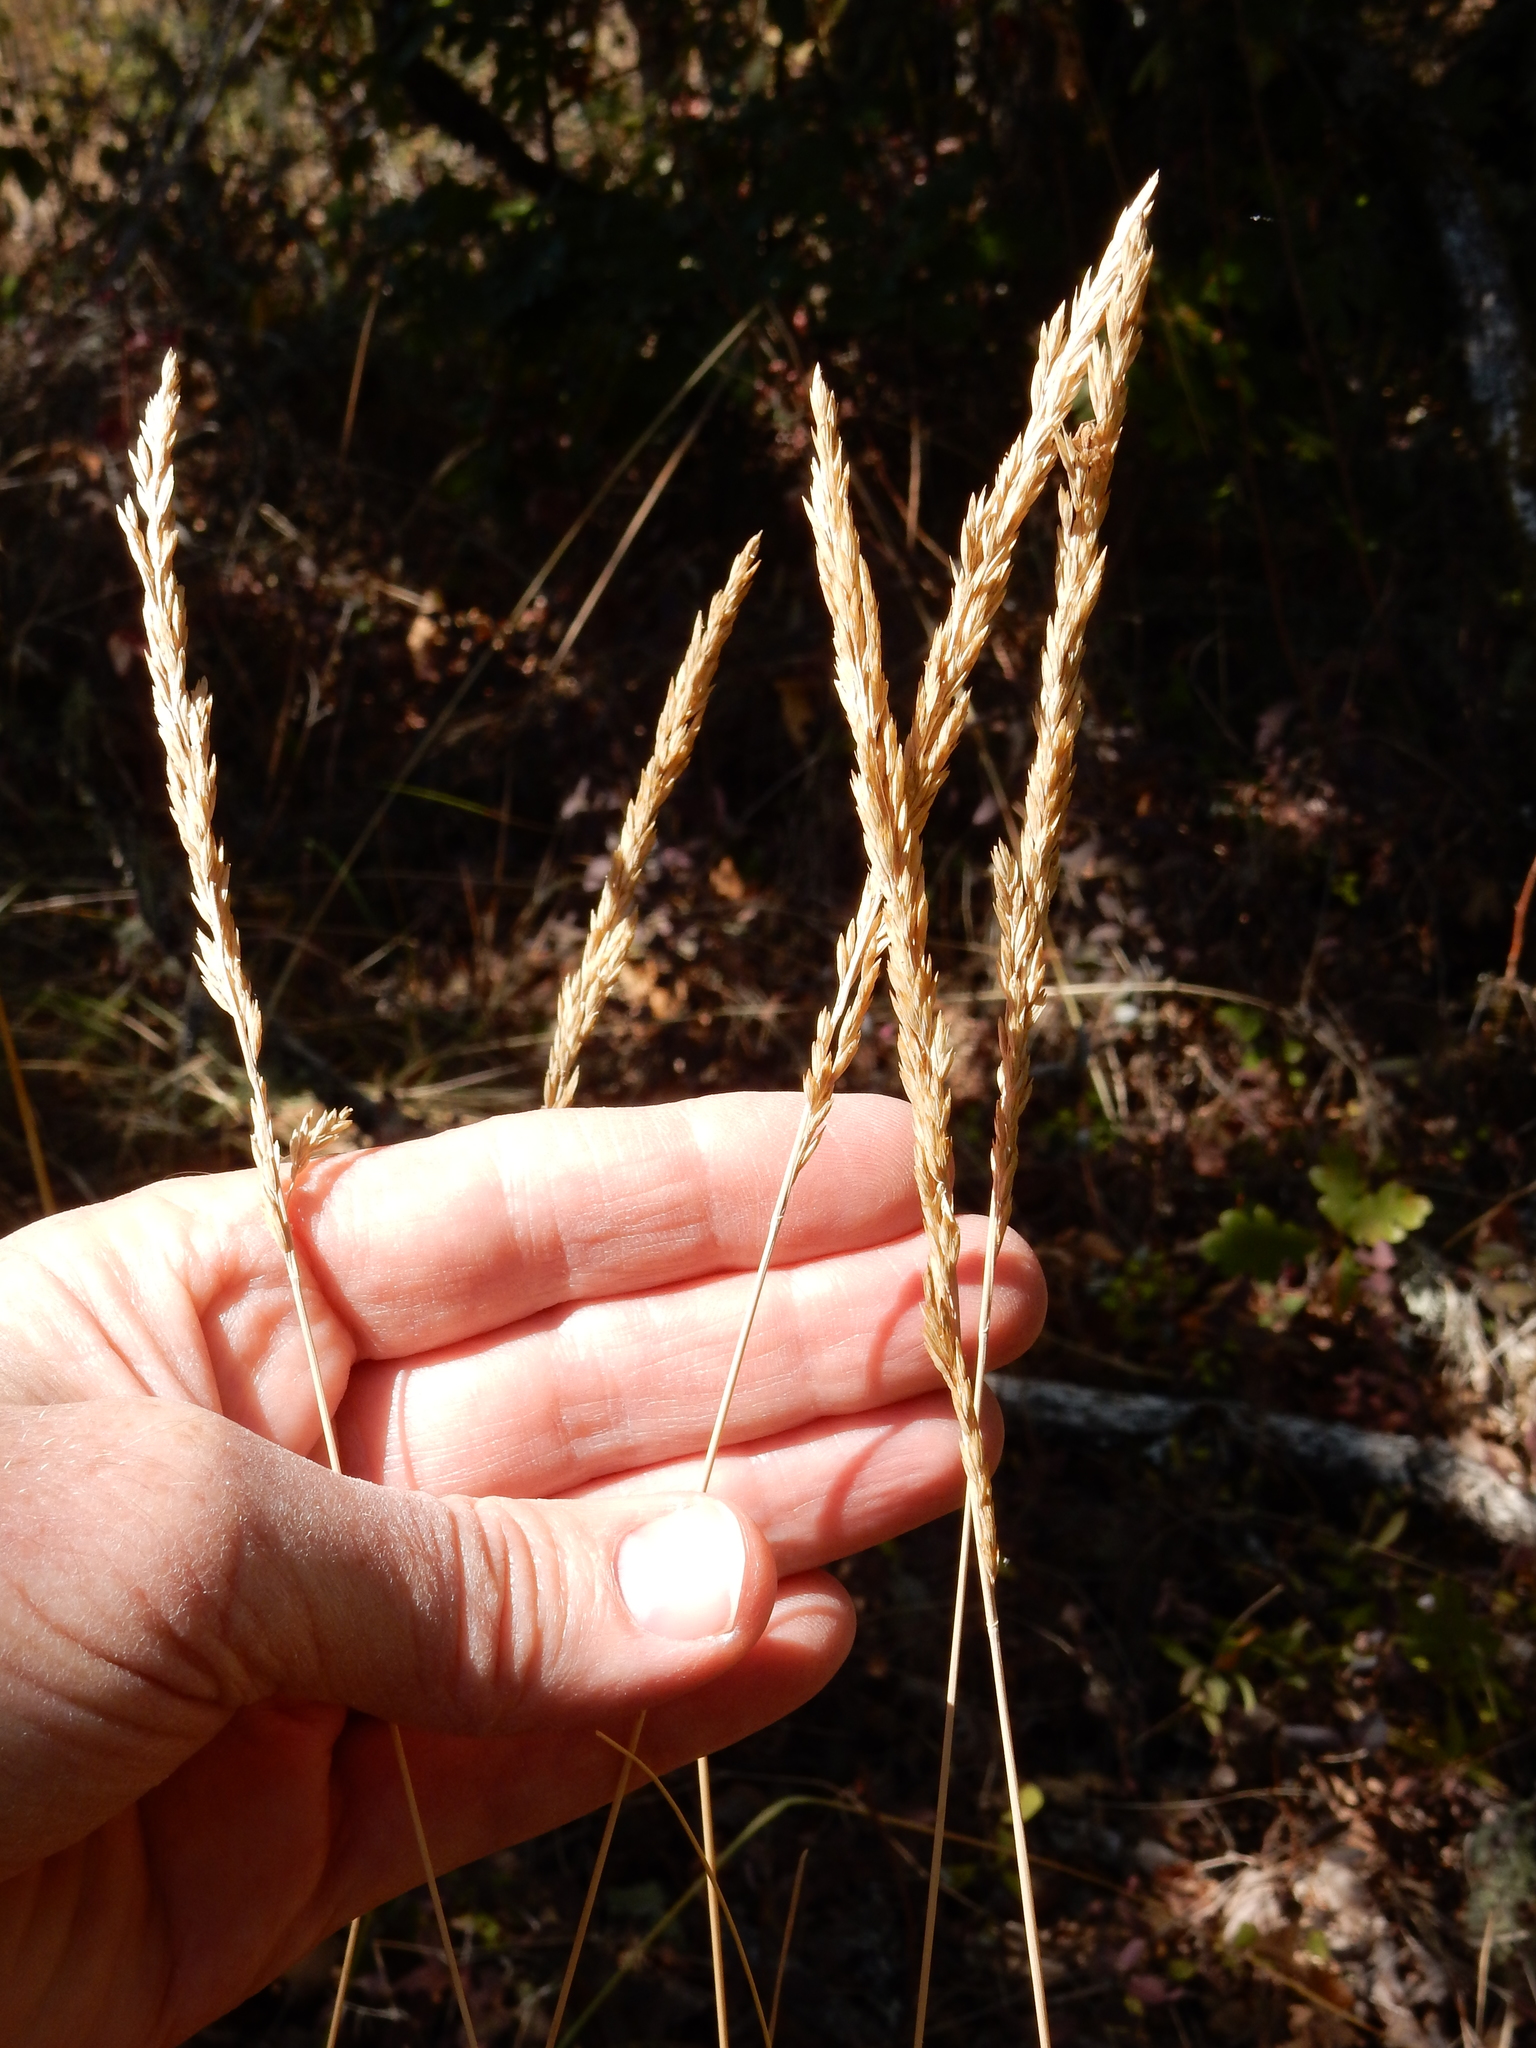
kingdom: Plantae
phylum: Tracheophyta
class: Liliopsida
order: Poales
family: Poaceae
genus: Poa
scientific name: Poa secunda
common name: Sandberg bluegrass
